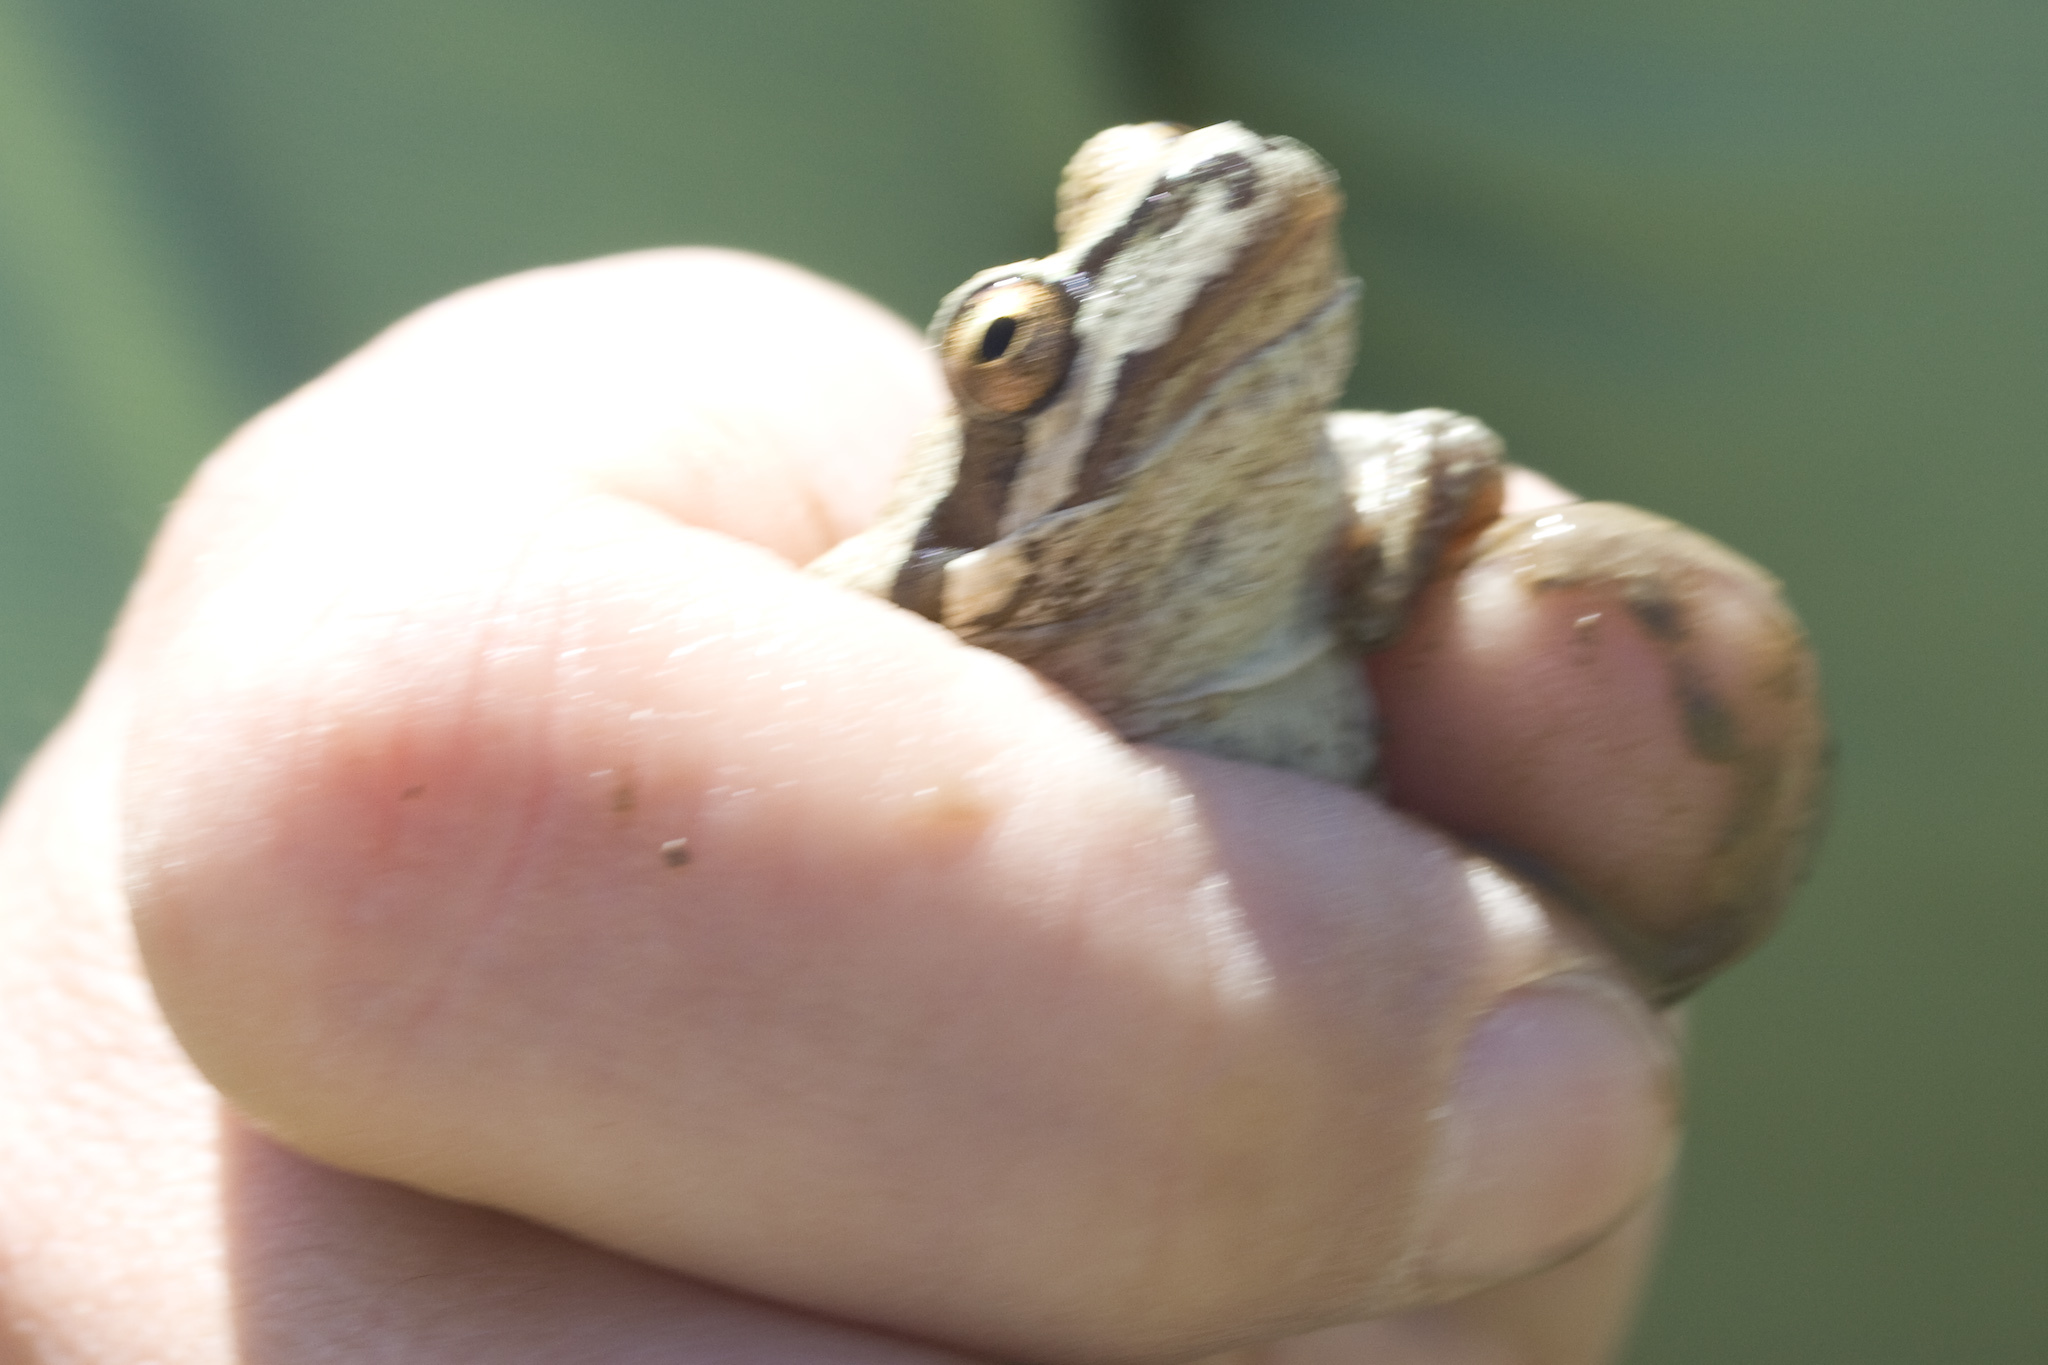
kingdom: Animalia
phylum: Chordata
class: Amphibia
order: Anura
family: Hylidae
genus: Pseudacris
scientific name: Pseudacris regilla
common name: Pacific chorus frog
